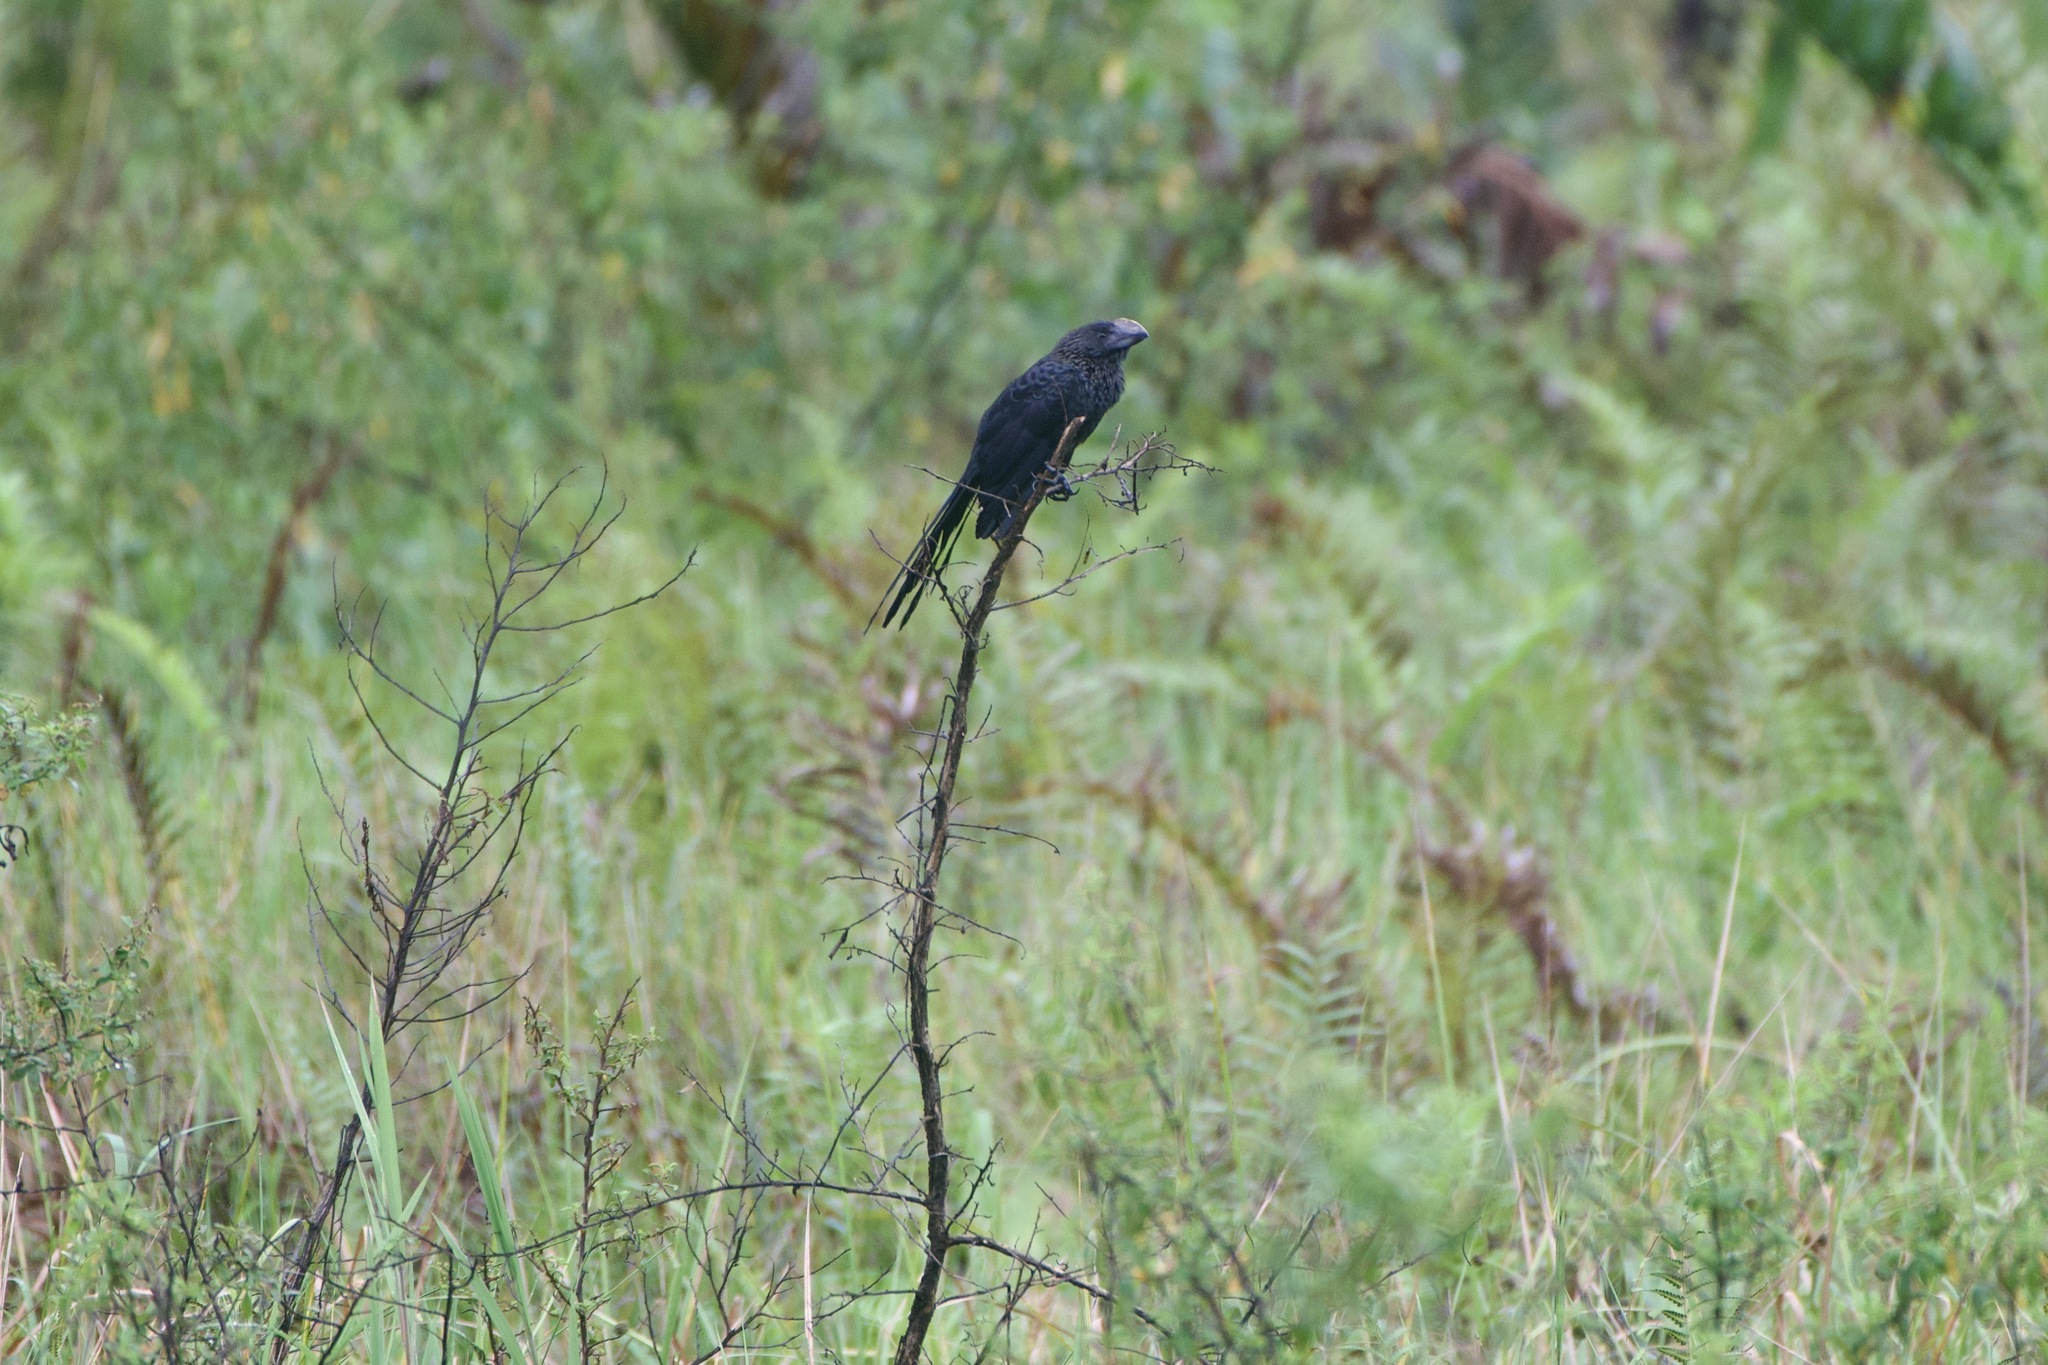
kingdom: Animalia
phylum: Chordata
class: Aves
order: Cuculiformes
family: Cuculidae
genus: Crotophaga
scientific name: Crotophaga ani
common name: Smooth-billed ani
